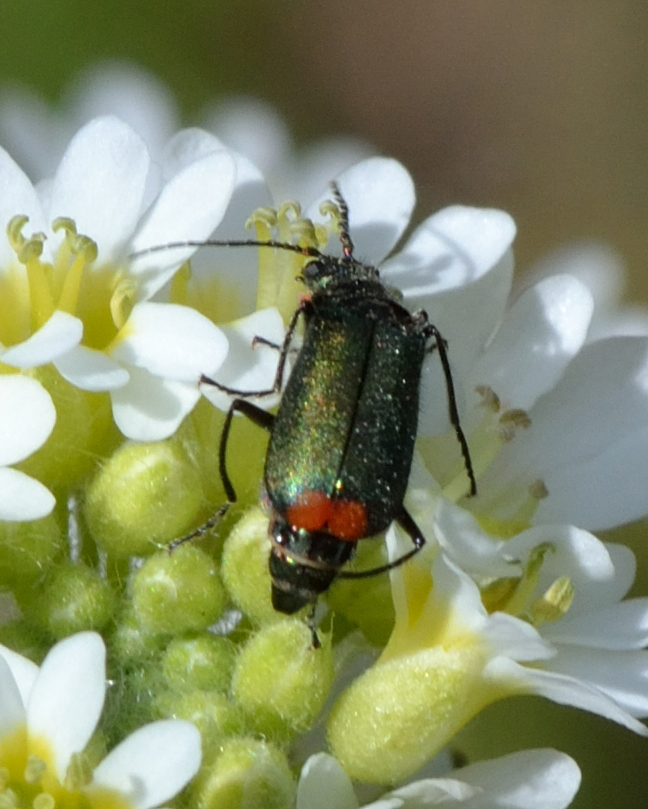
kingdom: Animalia
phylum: Arthropoda
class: Insecta
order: Coleoptera
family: Melyridae
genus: Malachius
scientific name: Malachius bipustulatus
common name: Malachite beetle
